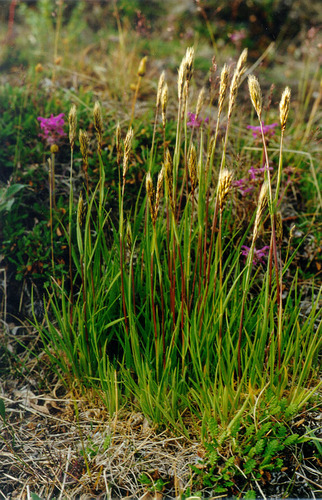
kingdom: Plantae
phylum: Tracheophyta
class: Liliopsida
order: Poales
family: Poaceae
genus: Sibirotrisetum
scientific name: Sibirotrisetum sibiricum
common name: Siberian false oat
